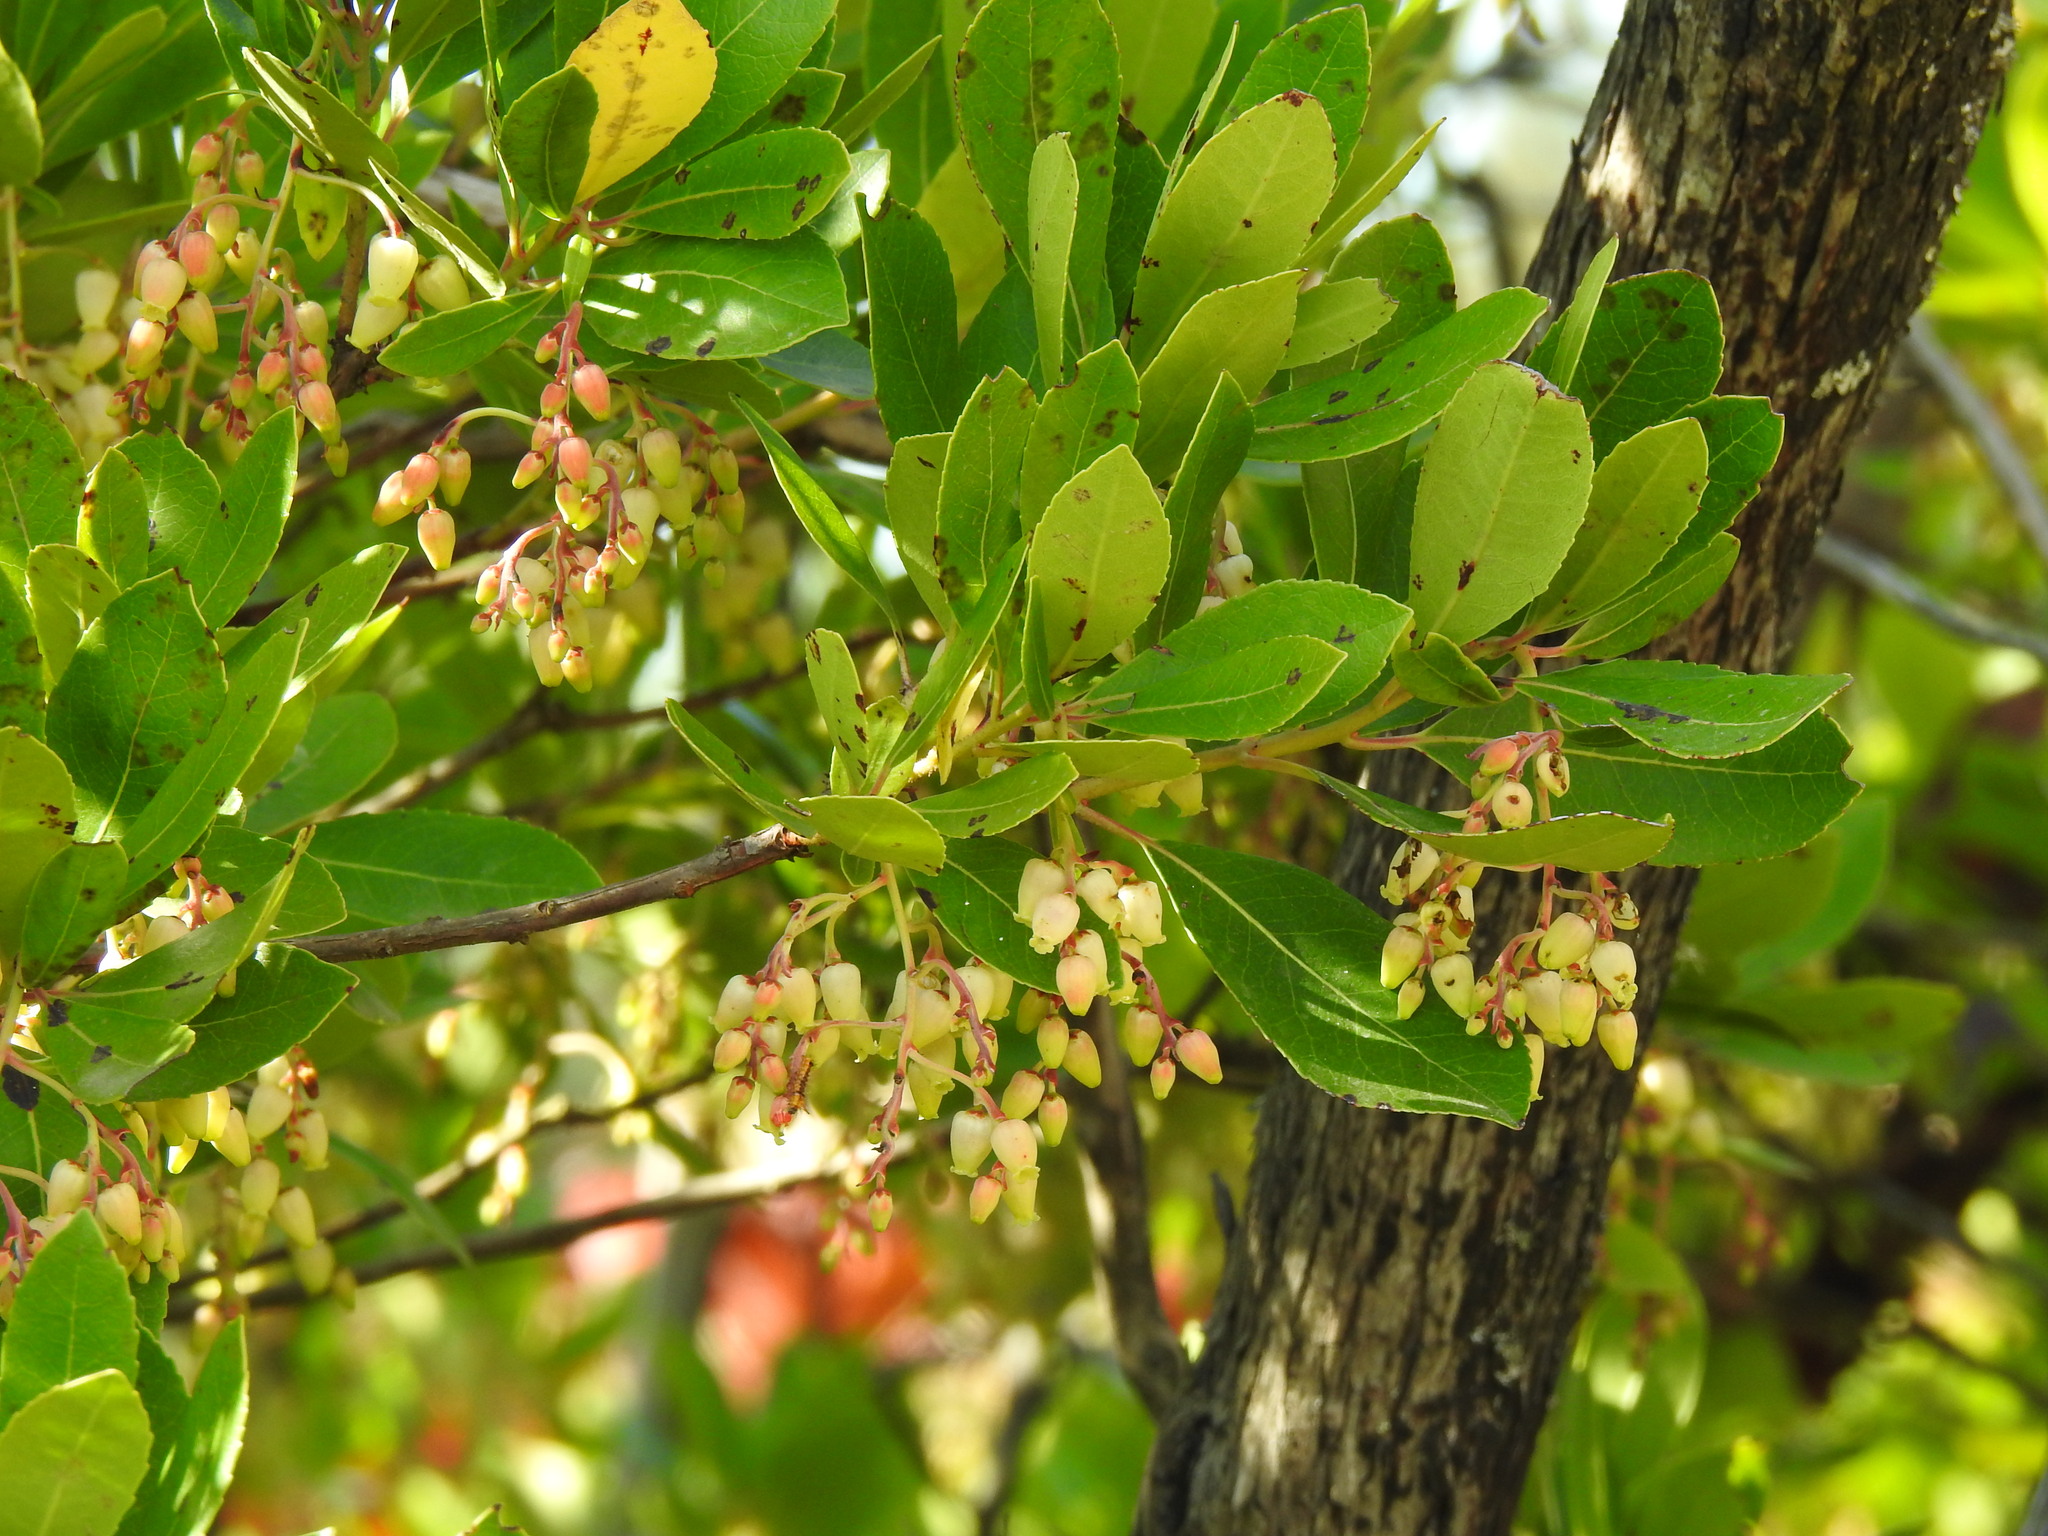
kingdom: Plantae
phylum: Tracheophyta
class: Magnoliopsida
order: Ericales
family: Ericaceae
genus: Arbutus
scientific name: Arbutus unedo
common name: Strawberry-tree
